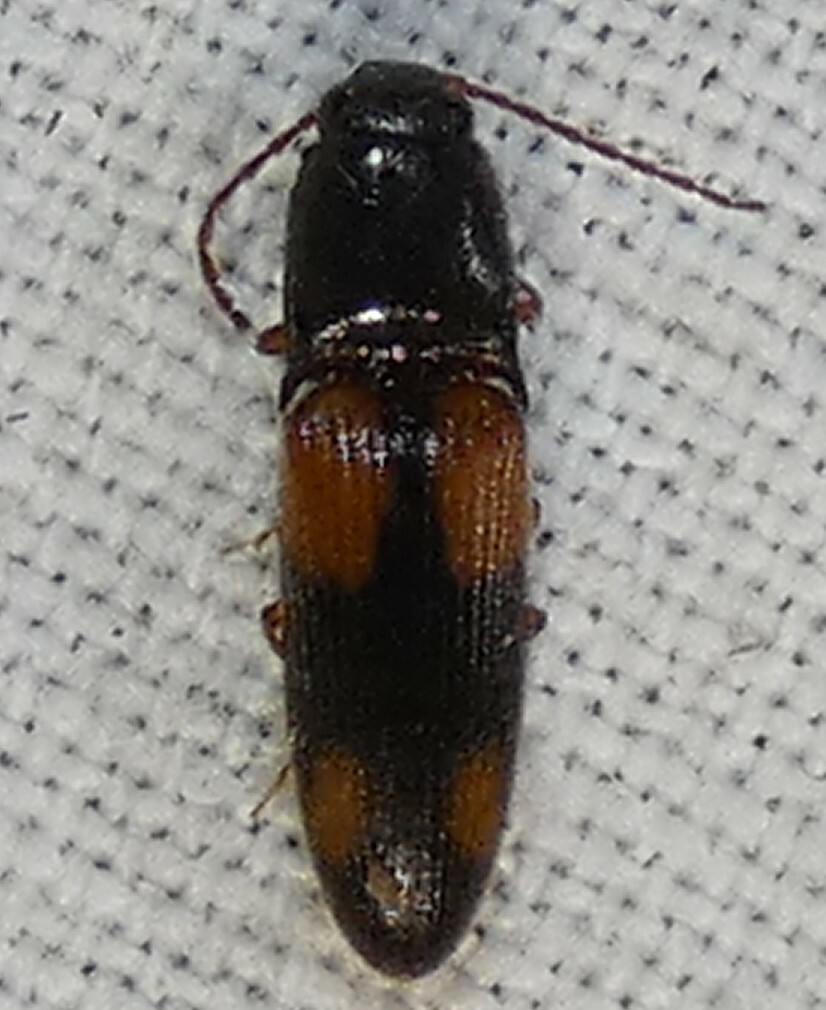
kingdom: Animalia
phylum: Arthropoda
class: Insecta
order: Coleoptera
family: Elateridae
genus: Anchastus
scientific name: Anchastus binus
